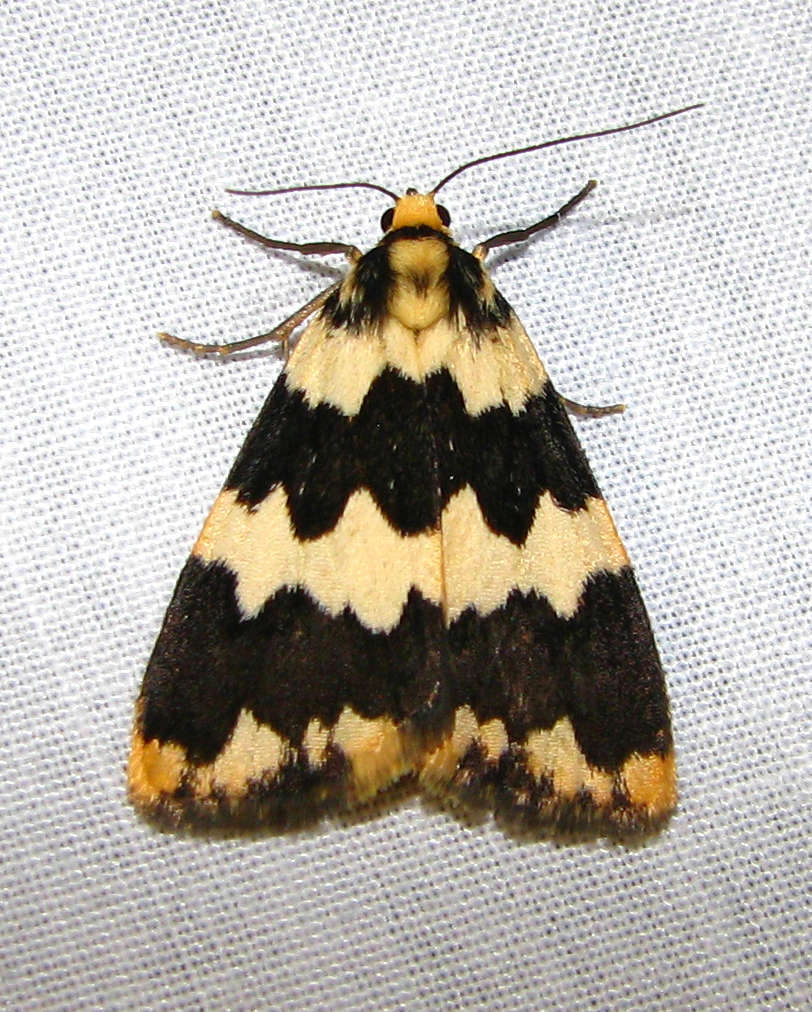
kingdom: Animalia
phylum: Arthropoda
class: Insecta
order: Lepidoptera
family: Erebidae
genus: Termessa
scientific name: Termessa shepherdi
